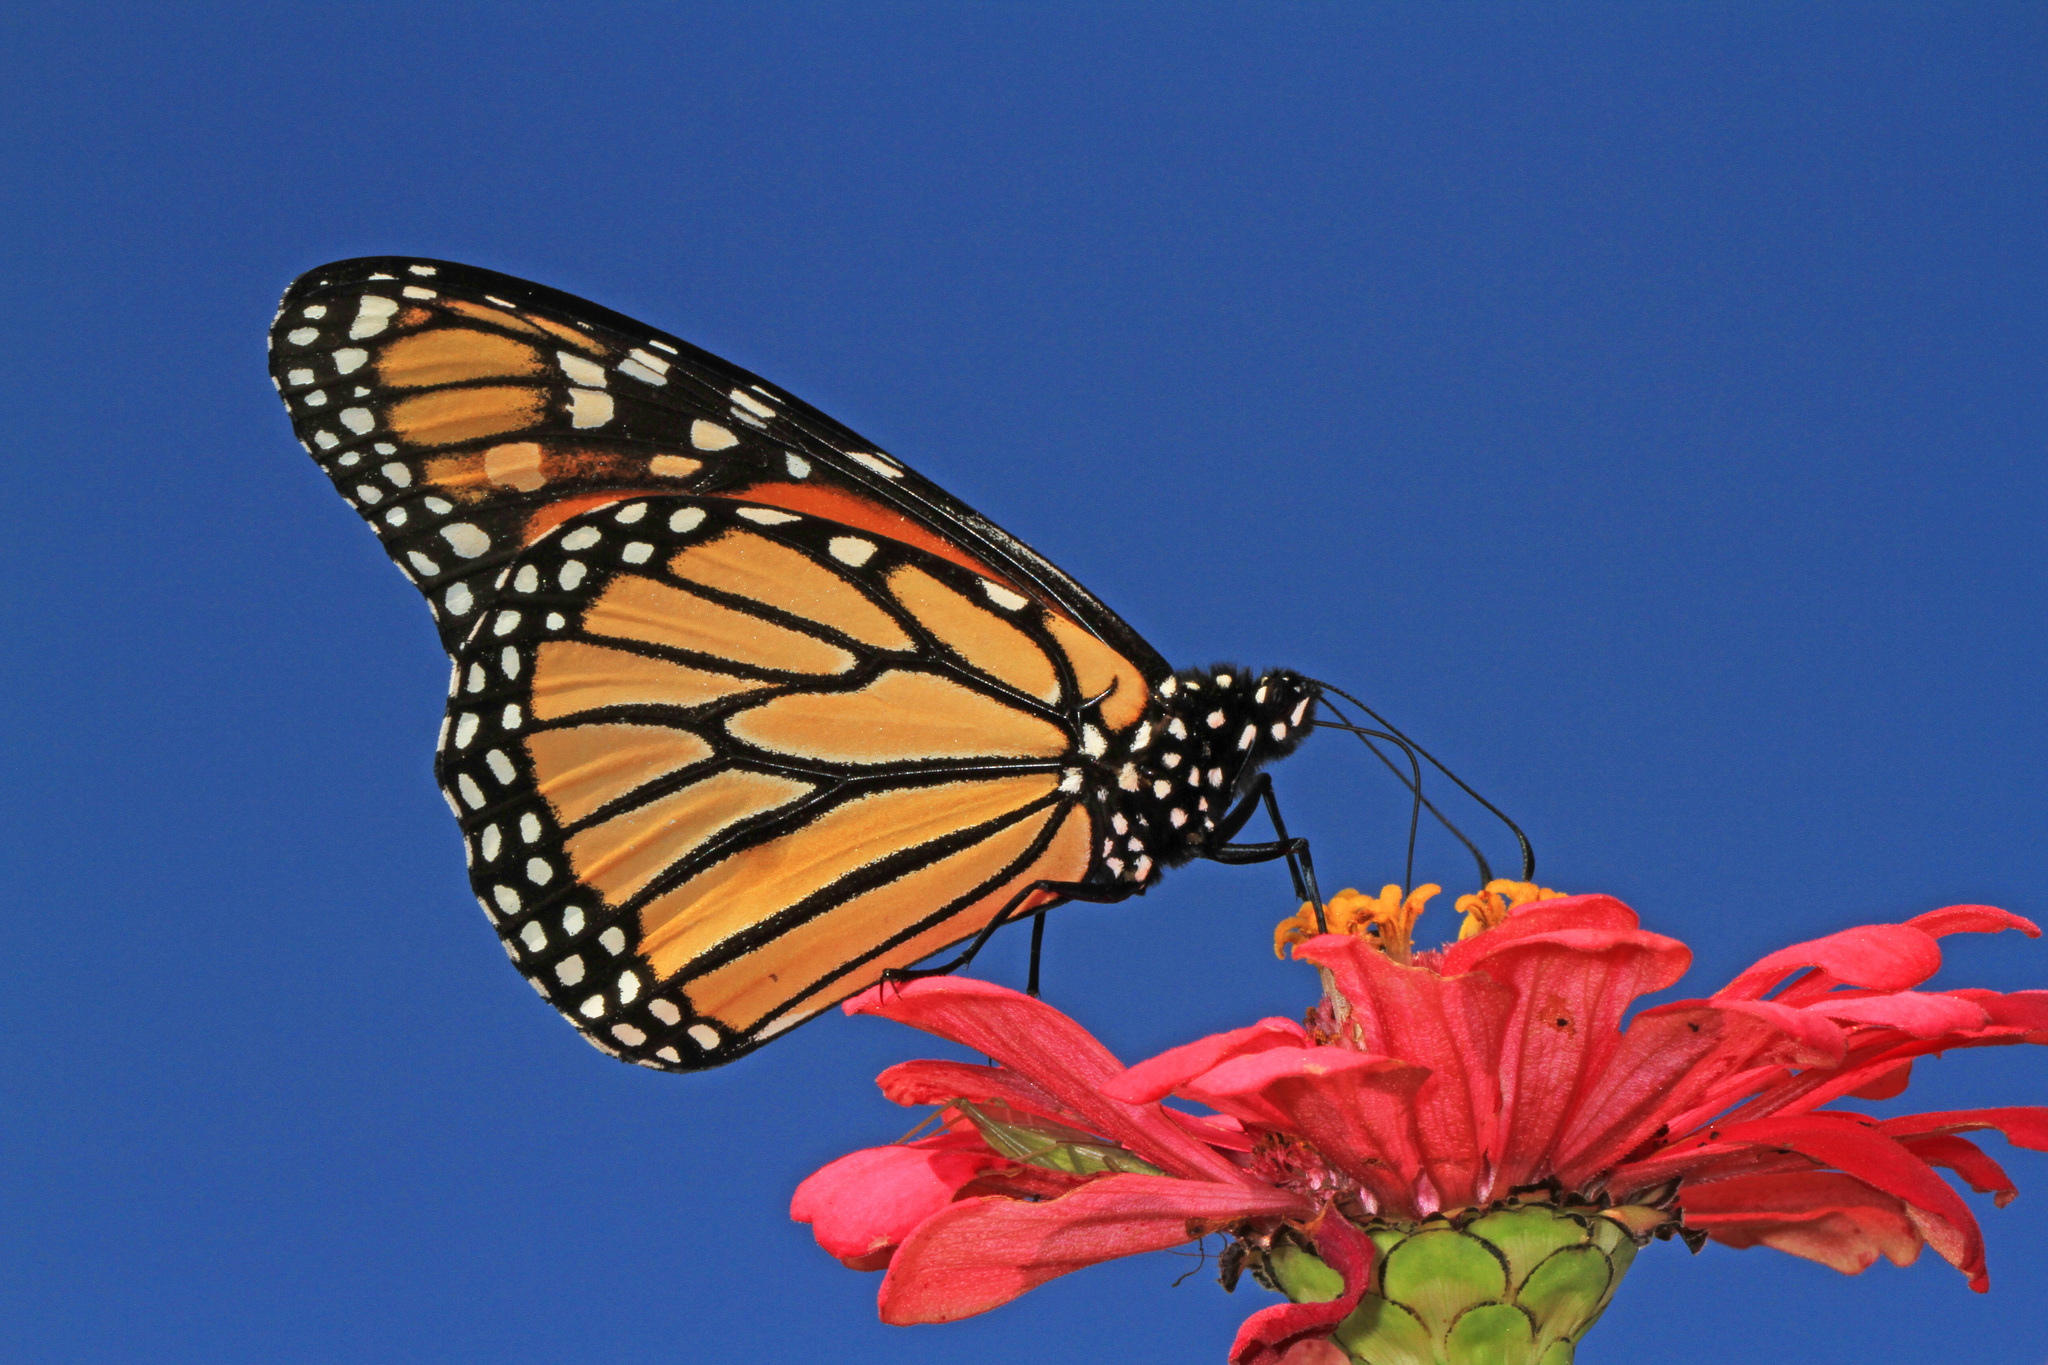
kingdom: Animalia
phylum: Arthropoda
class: Insecta
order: Lepidoptera
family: Nymphalidae
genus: Danaus
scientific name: Danaus plexippus
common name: Monarch
